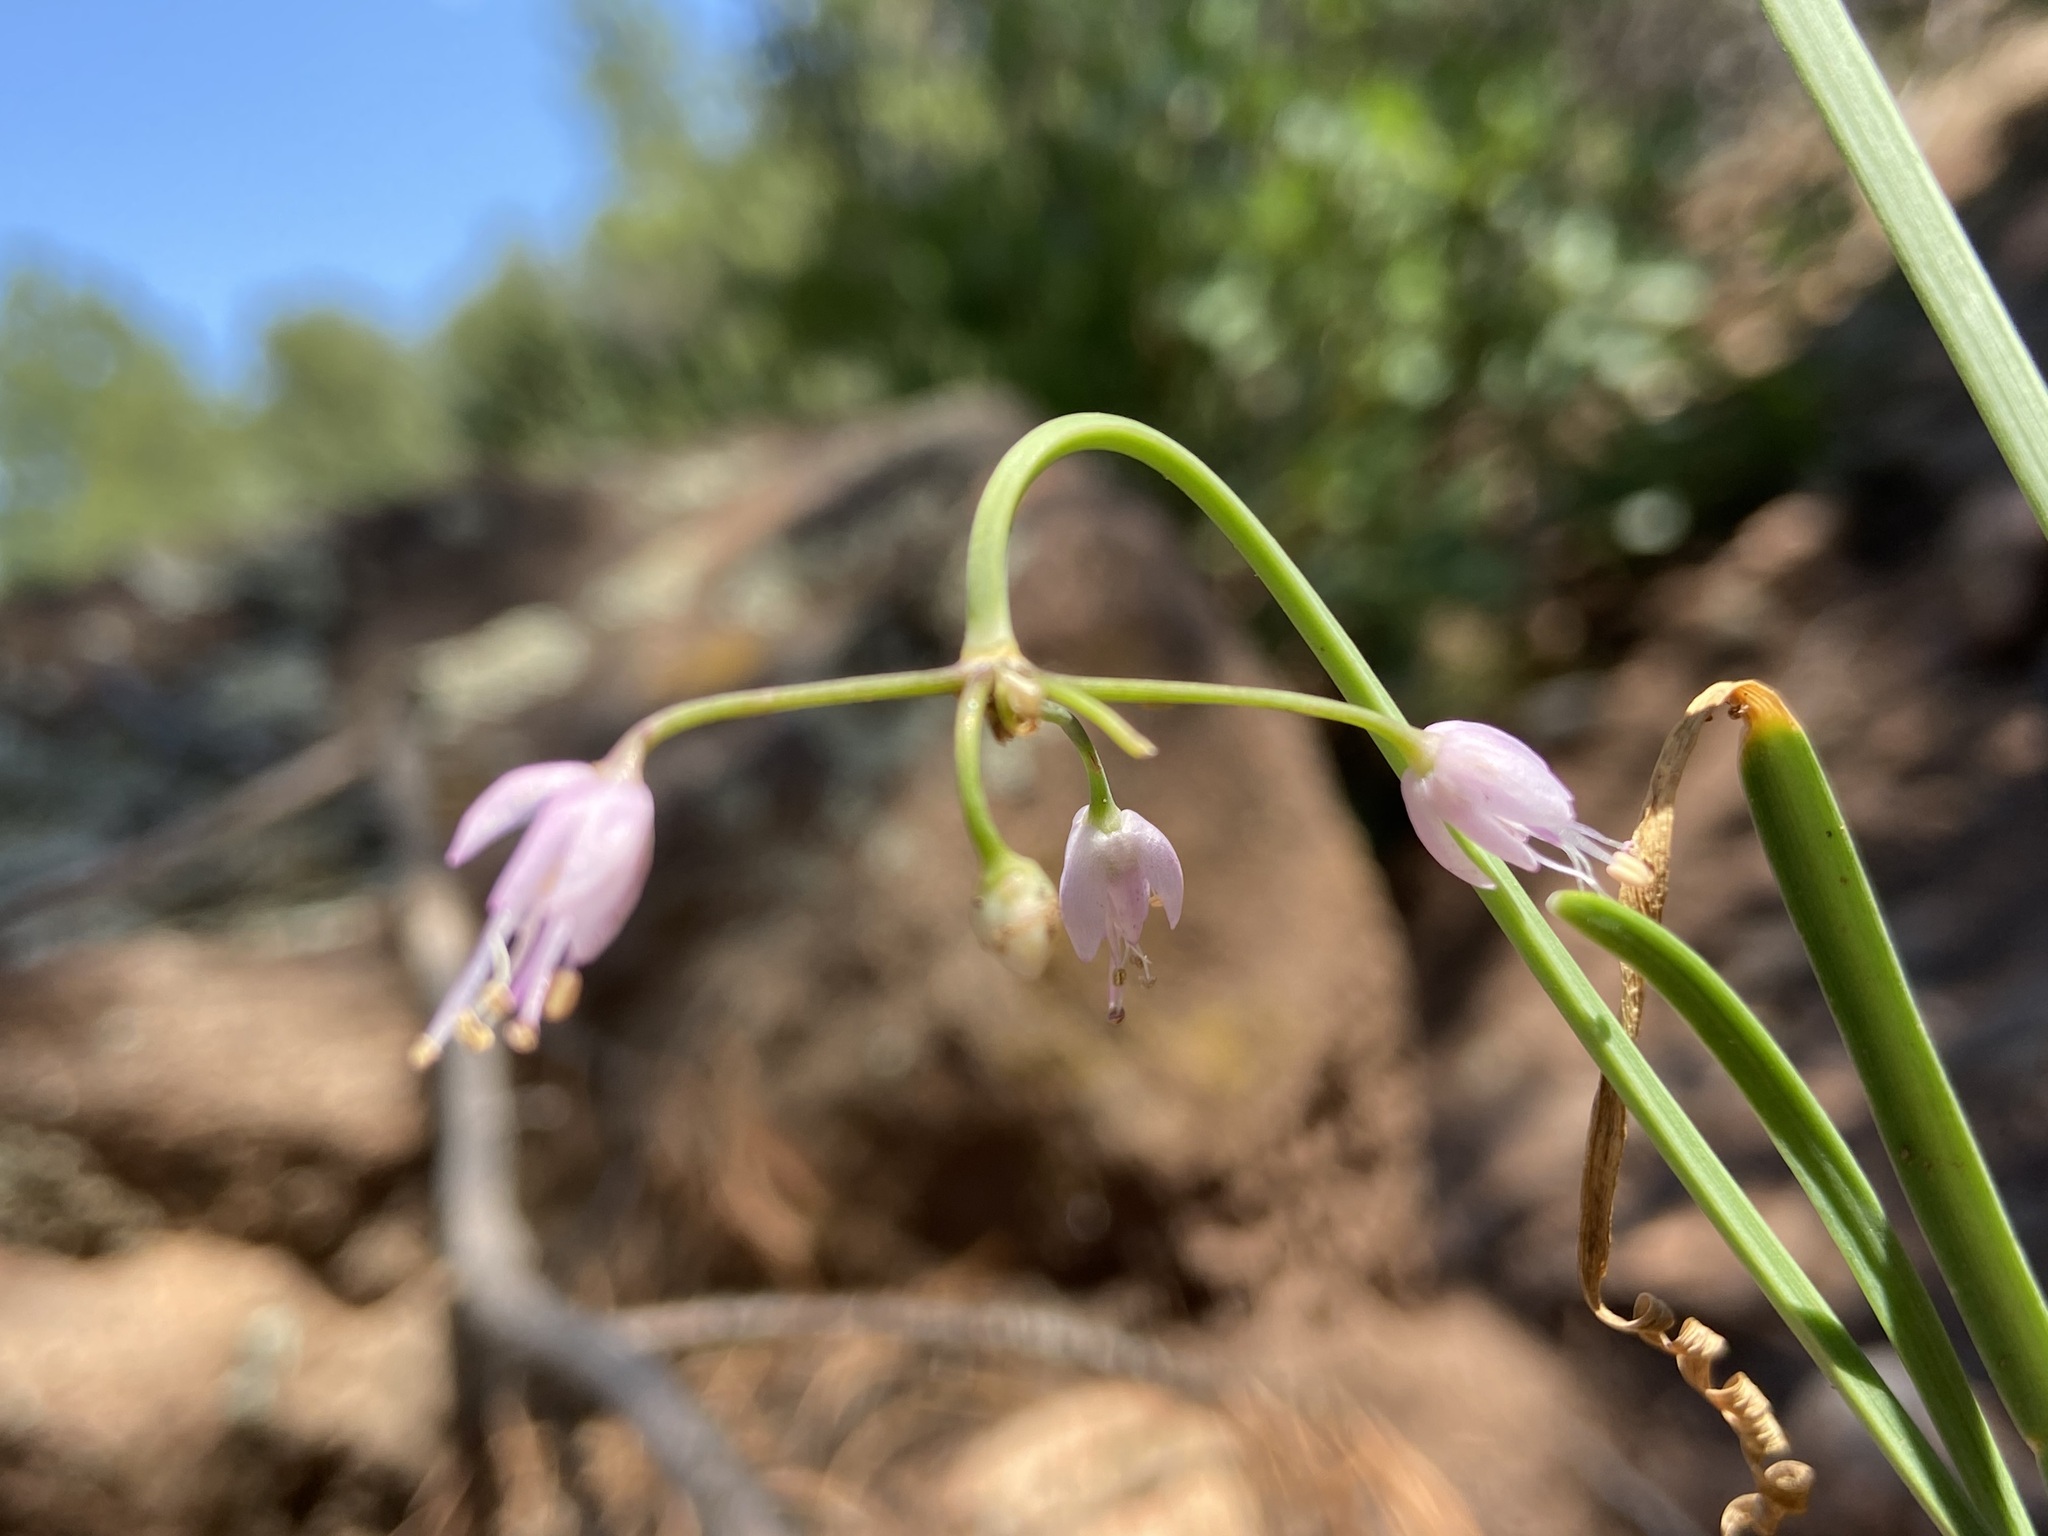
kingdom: Plantae
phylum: Tracheophyta
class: Liliopsida
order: Asparagales
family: Amaryllidaceae
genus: Allium
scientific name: Allium cernuum
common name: Nodding onion
